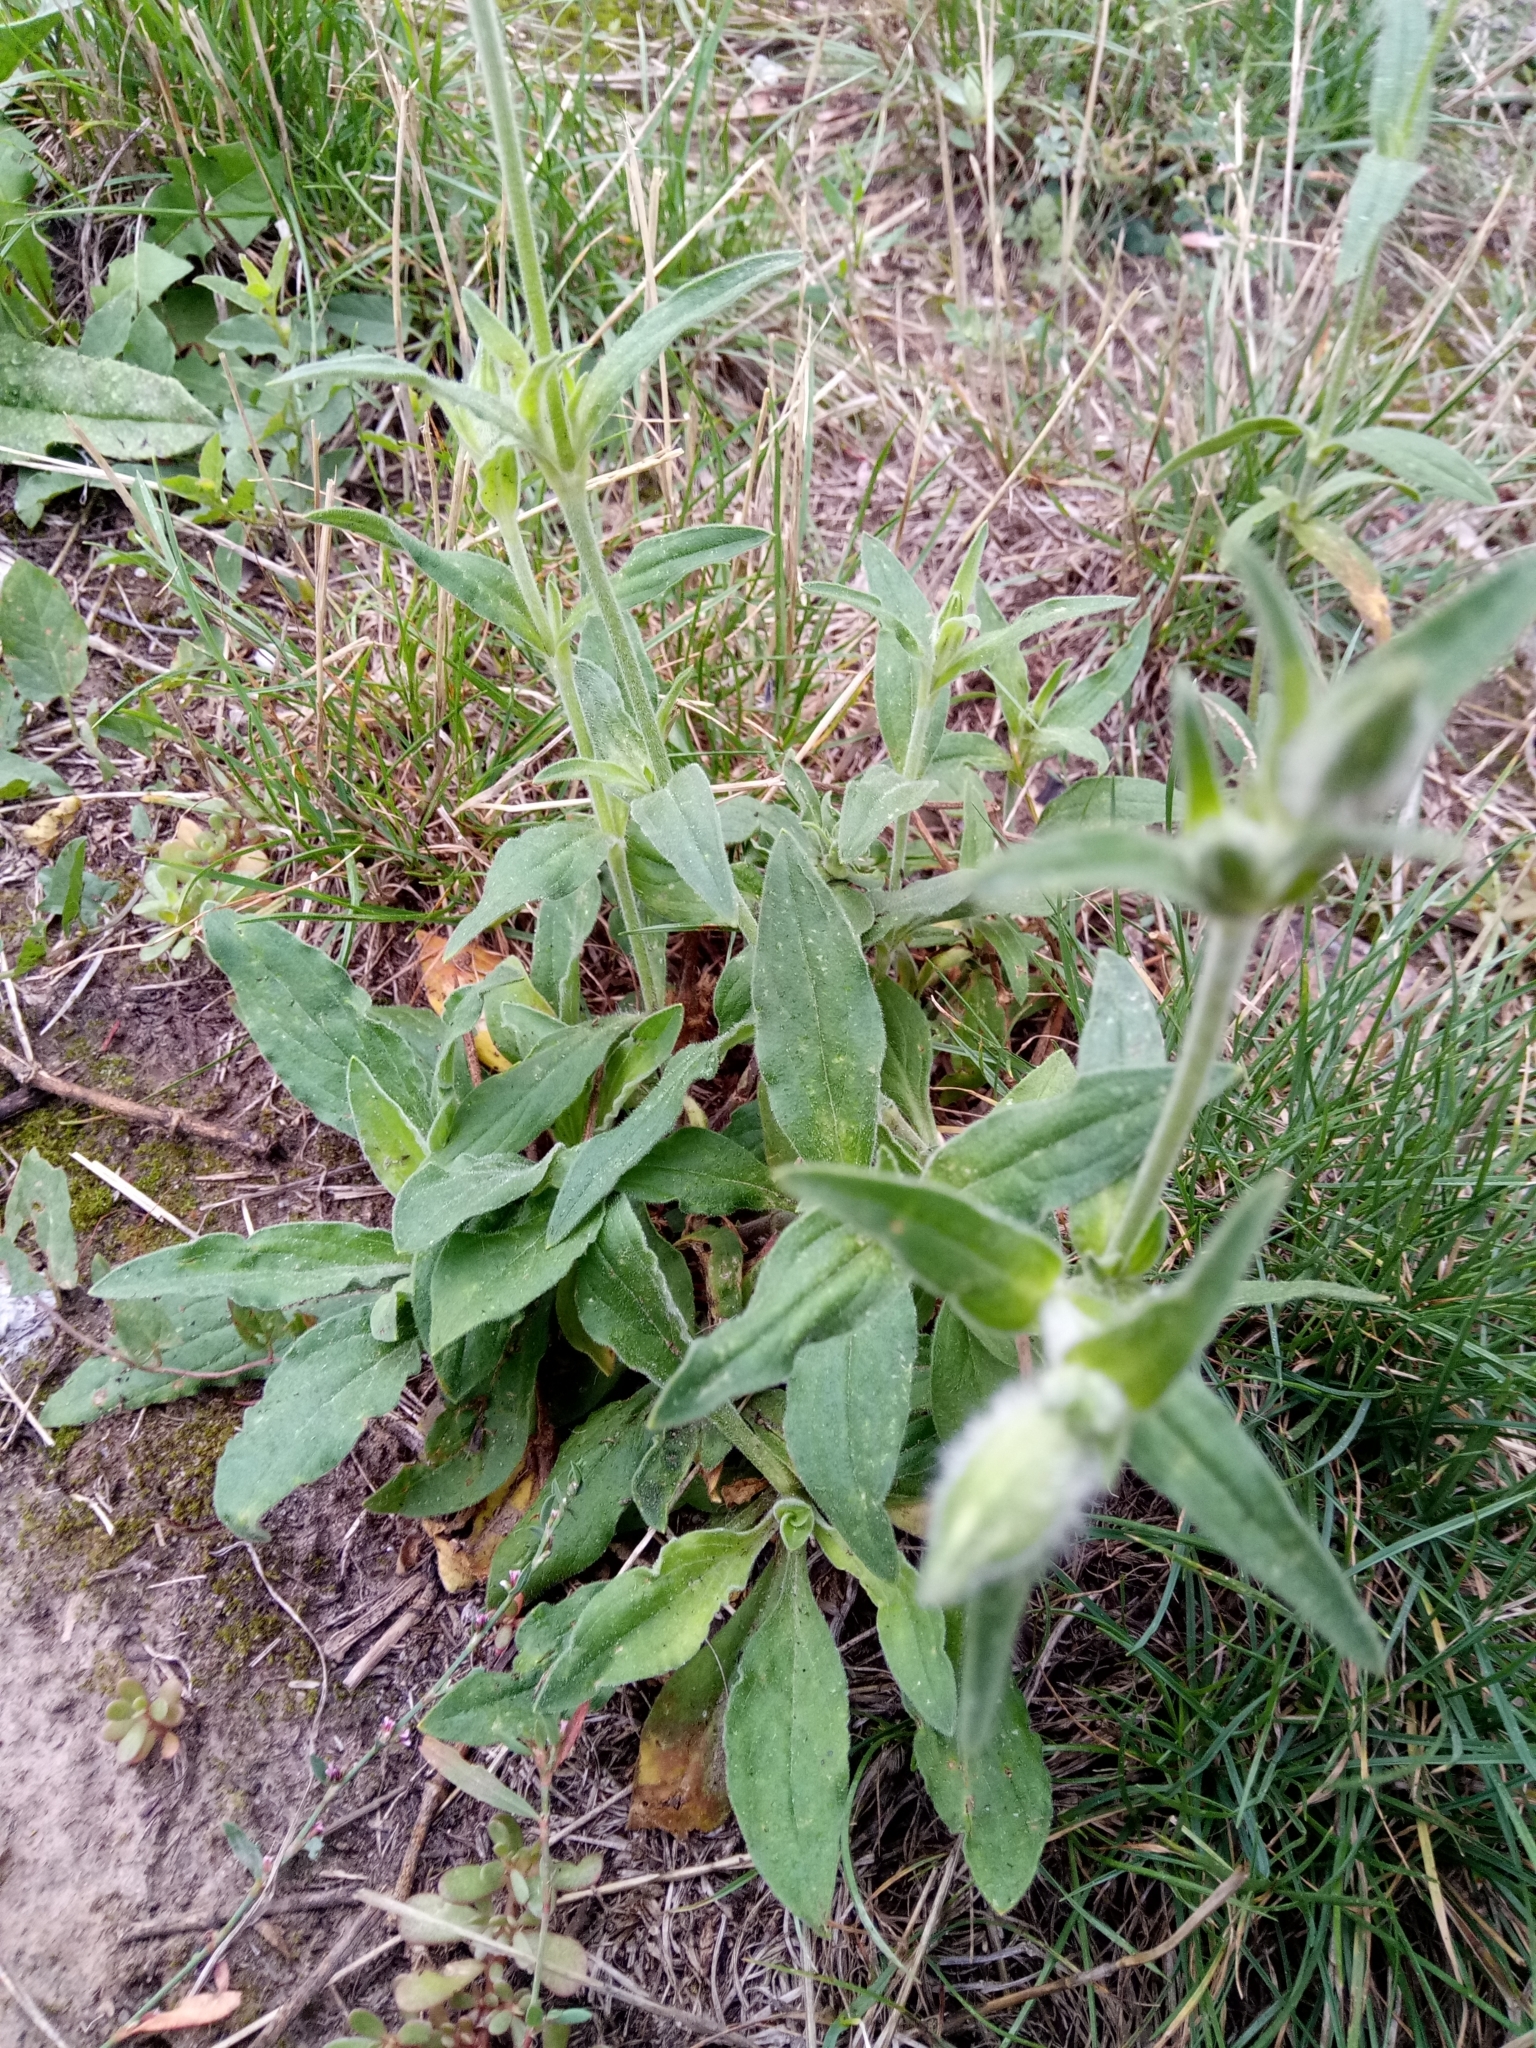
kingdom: Plantae
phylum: Tracheophyta
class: Magnoliopsida
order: Caryophyllales
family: Caryophyllaceae
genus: Silene
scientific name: Silene latifolia
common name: White campion
